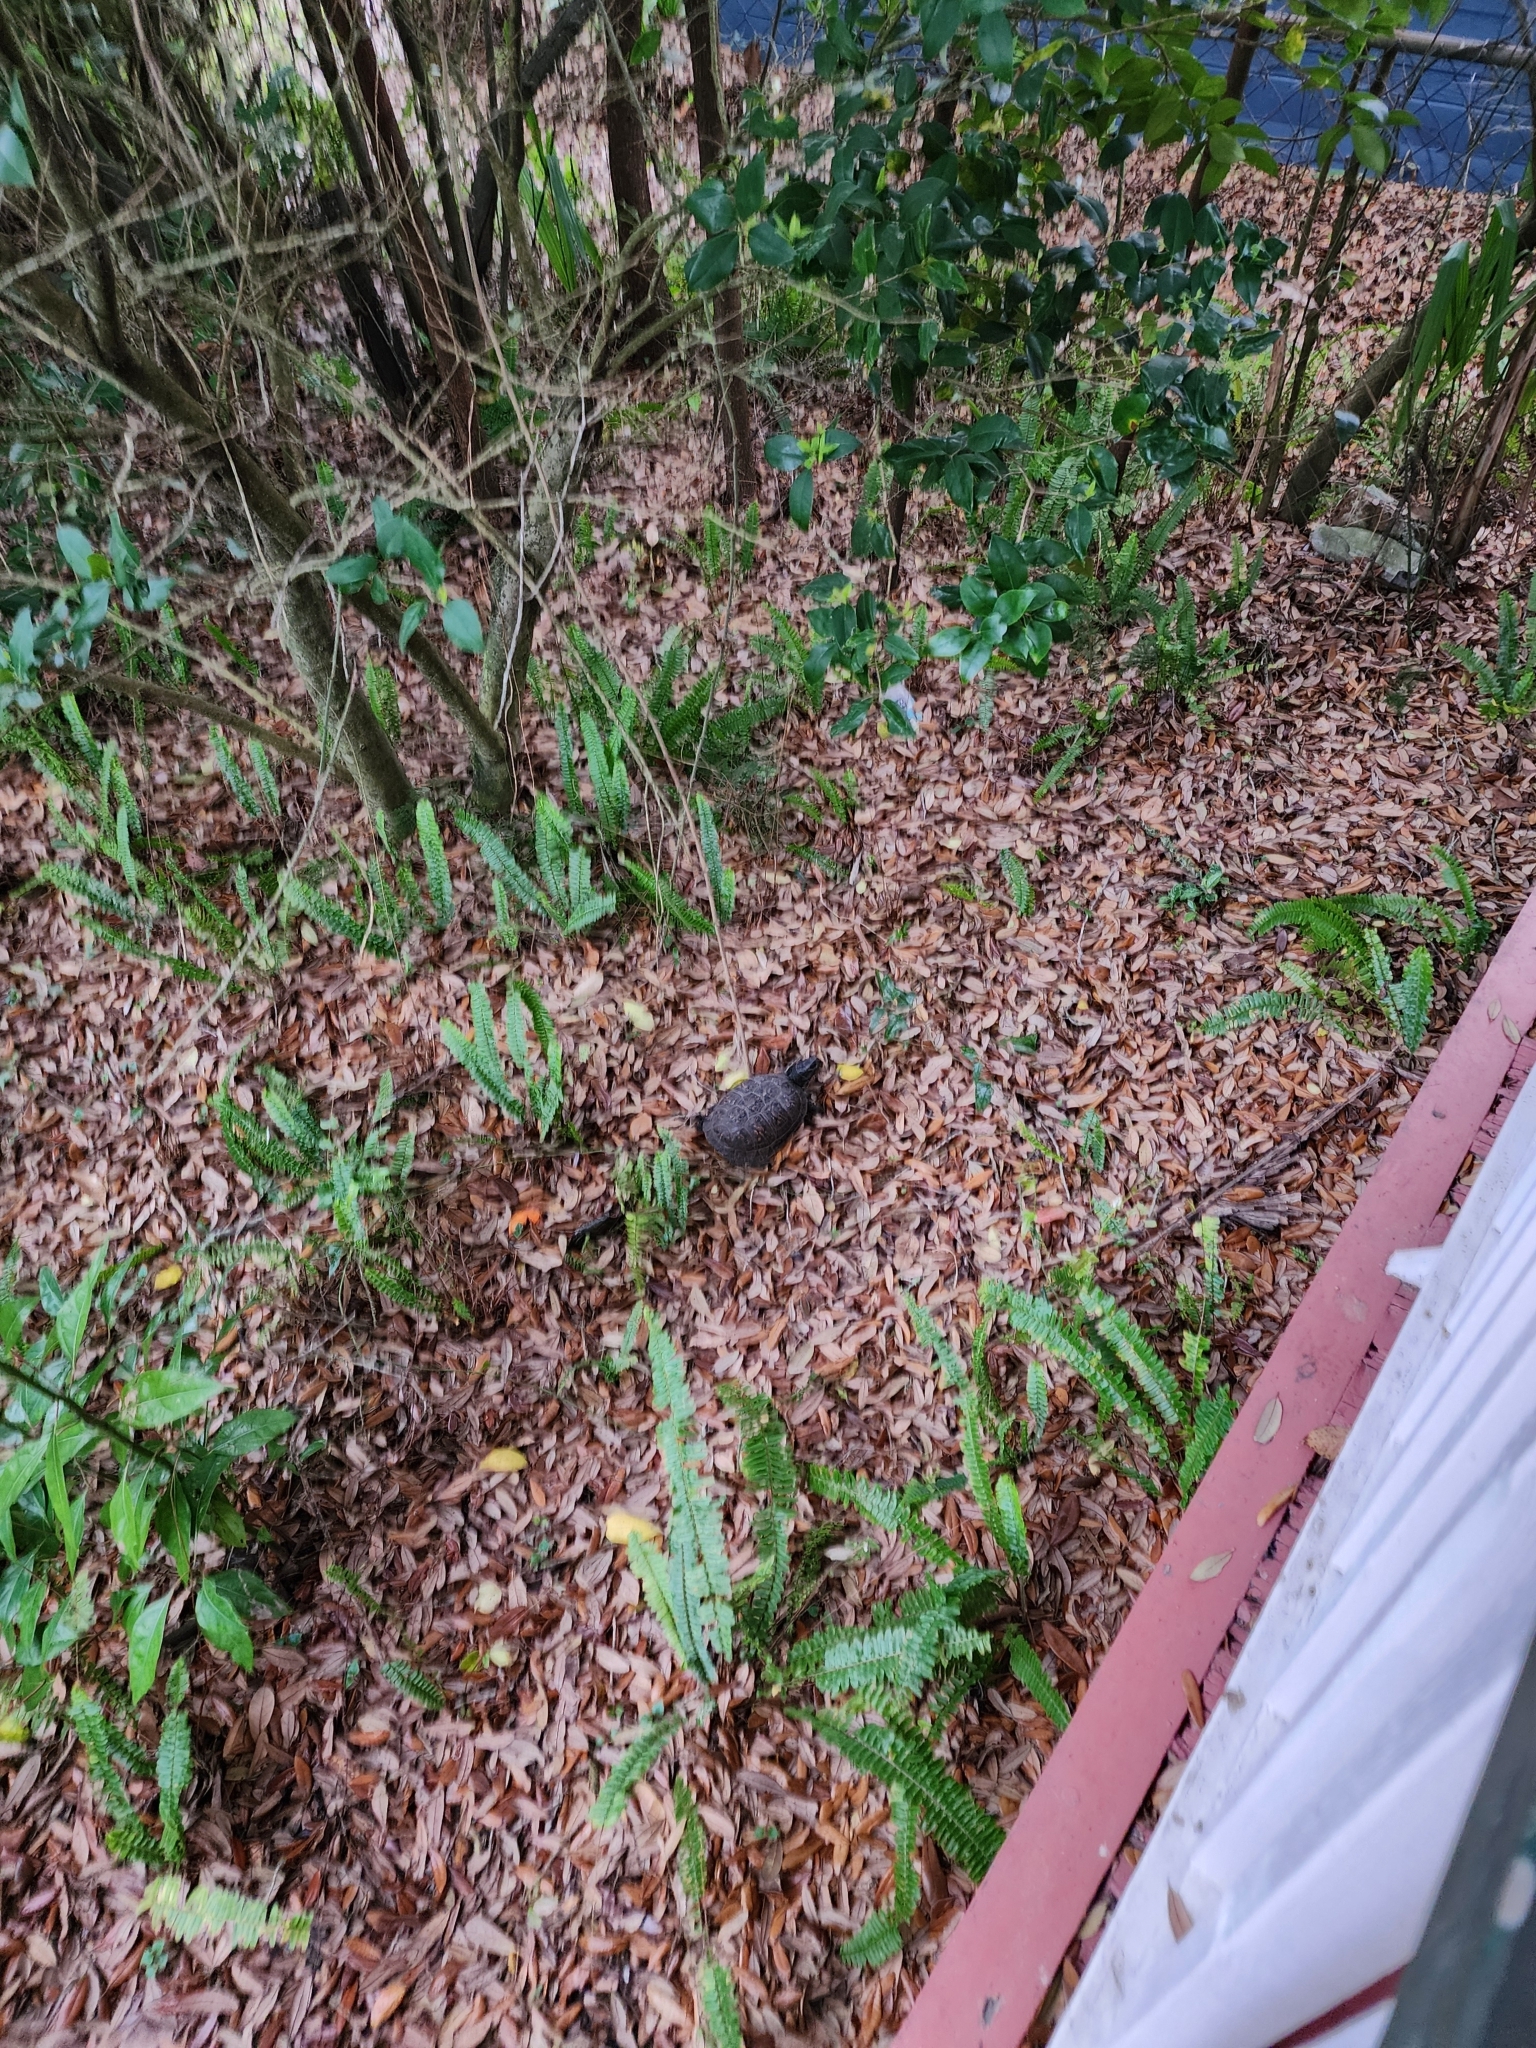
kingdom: Animalia
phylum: Chordata
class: Testudines
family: Emydidae
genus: Terrapene
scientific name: Terrapene carolina
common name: Common box turtle
